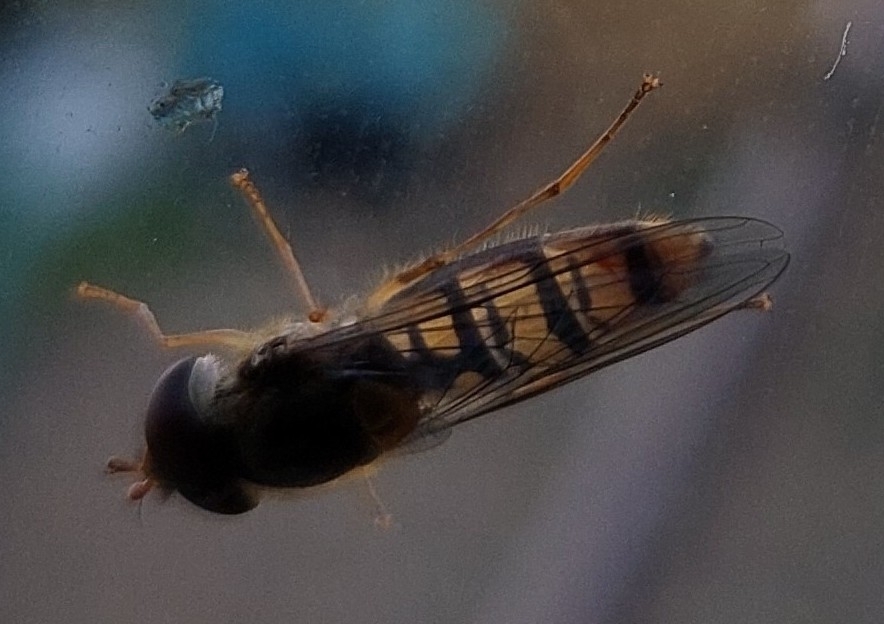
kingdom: Animalia
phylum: Arthropoda
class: Insecta
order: Diptera
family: Syrphidae
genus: Episyrphus
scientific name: Episyrphus balteatus
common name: Marmalade hoverfly
